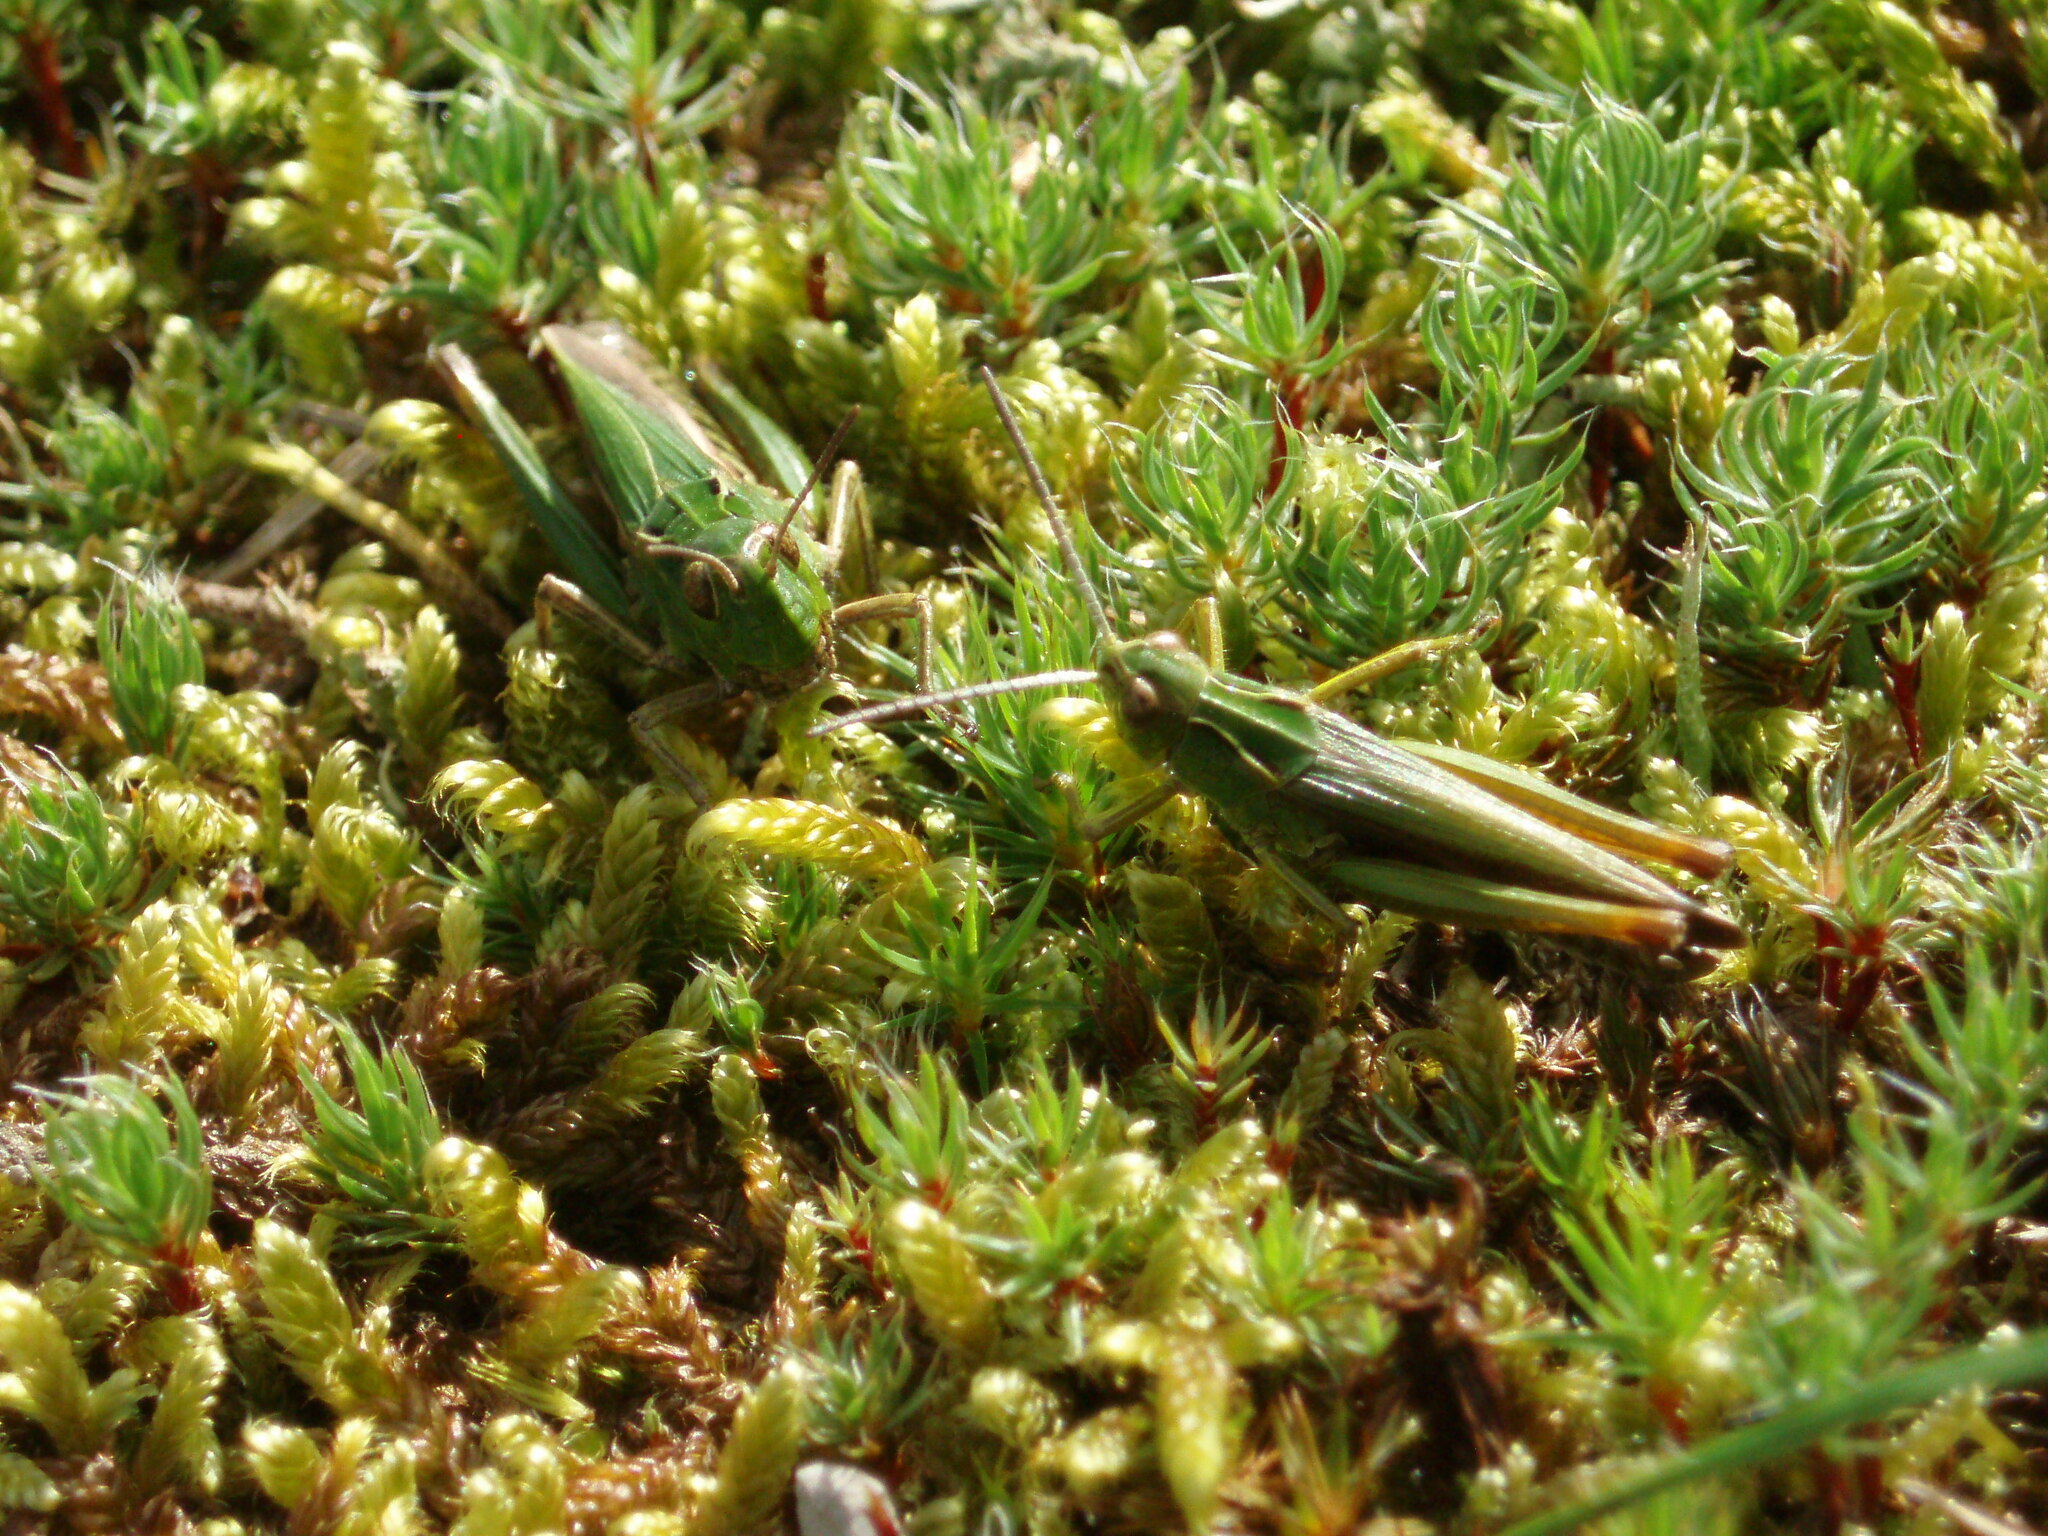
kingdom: Animalia
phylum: Arthropoda
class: Insecta
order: Orthoptera
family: Acrididae
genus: Omocestus
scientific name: Omocestus viridulus
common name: Common green grasshopper
